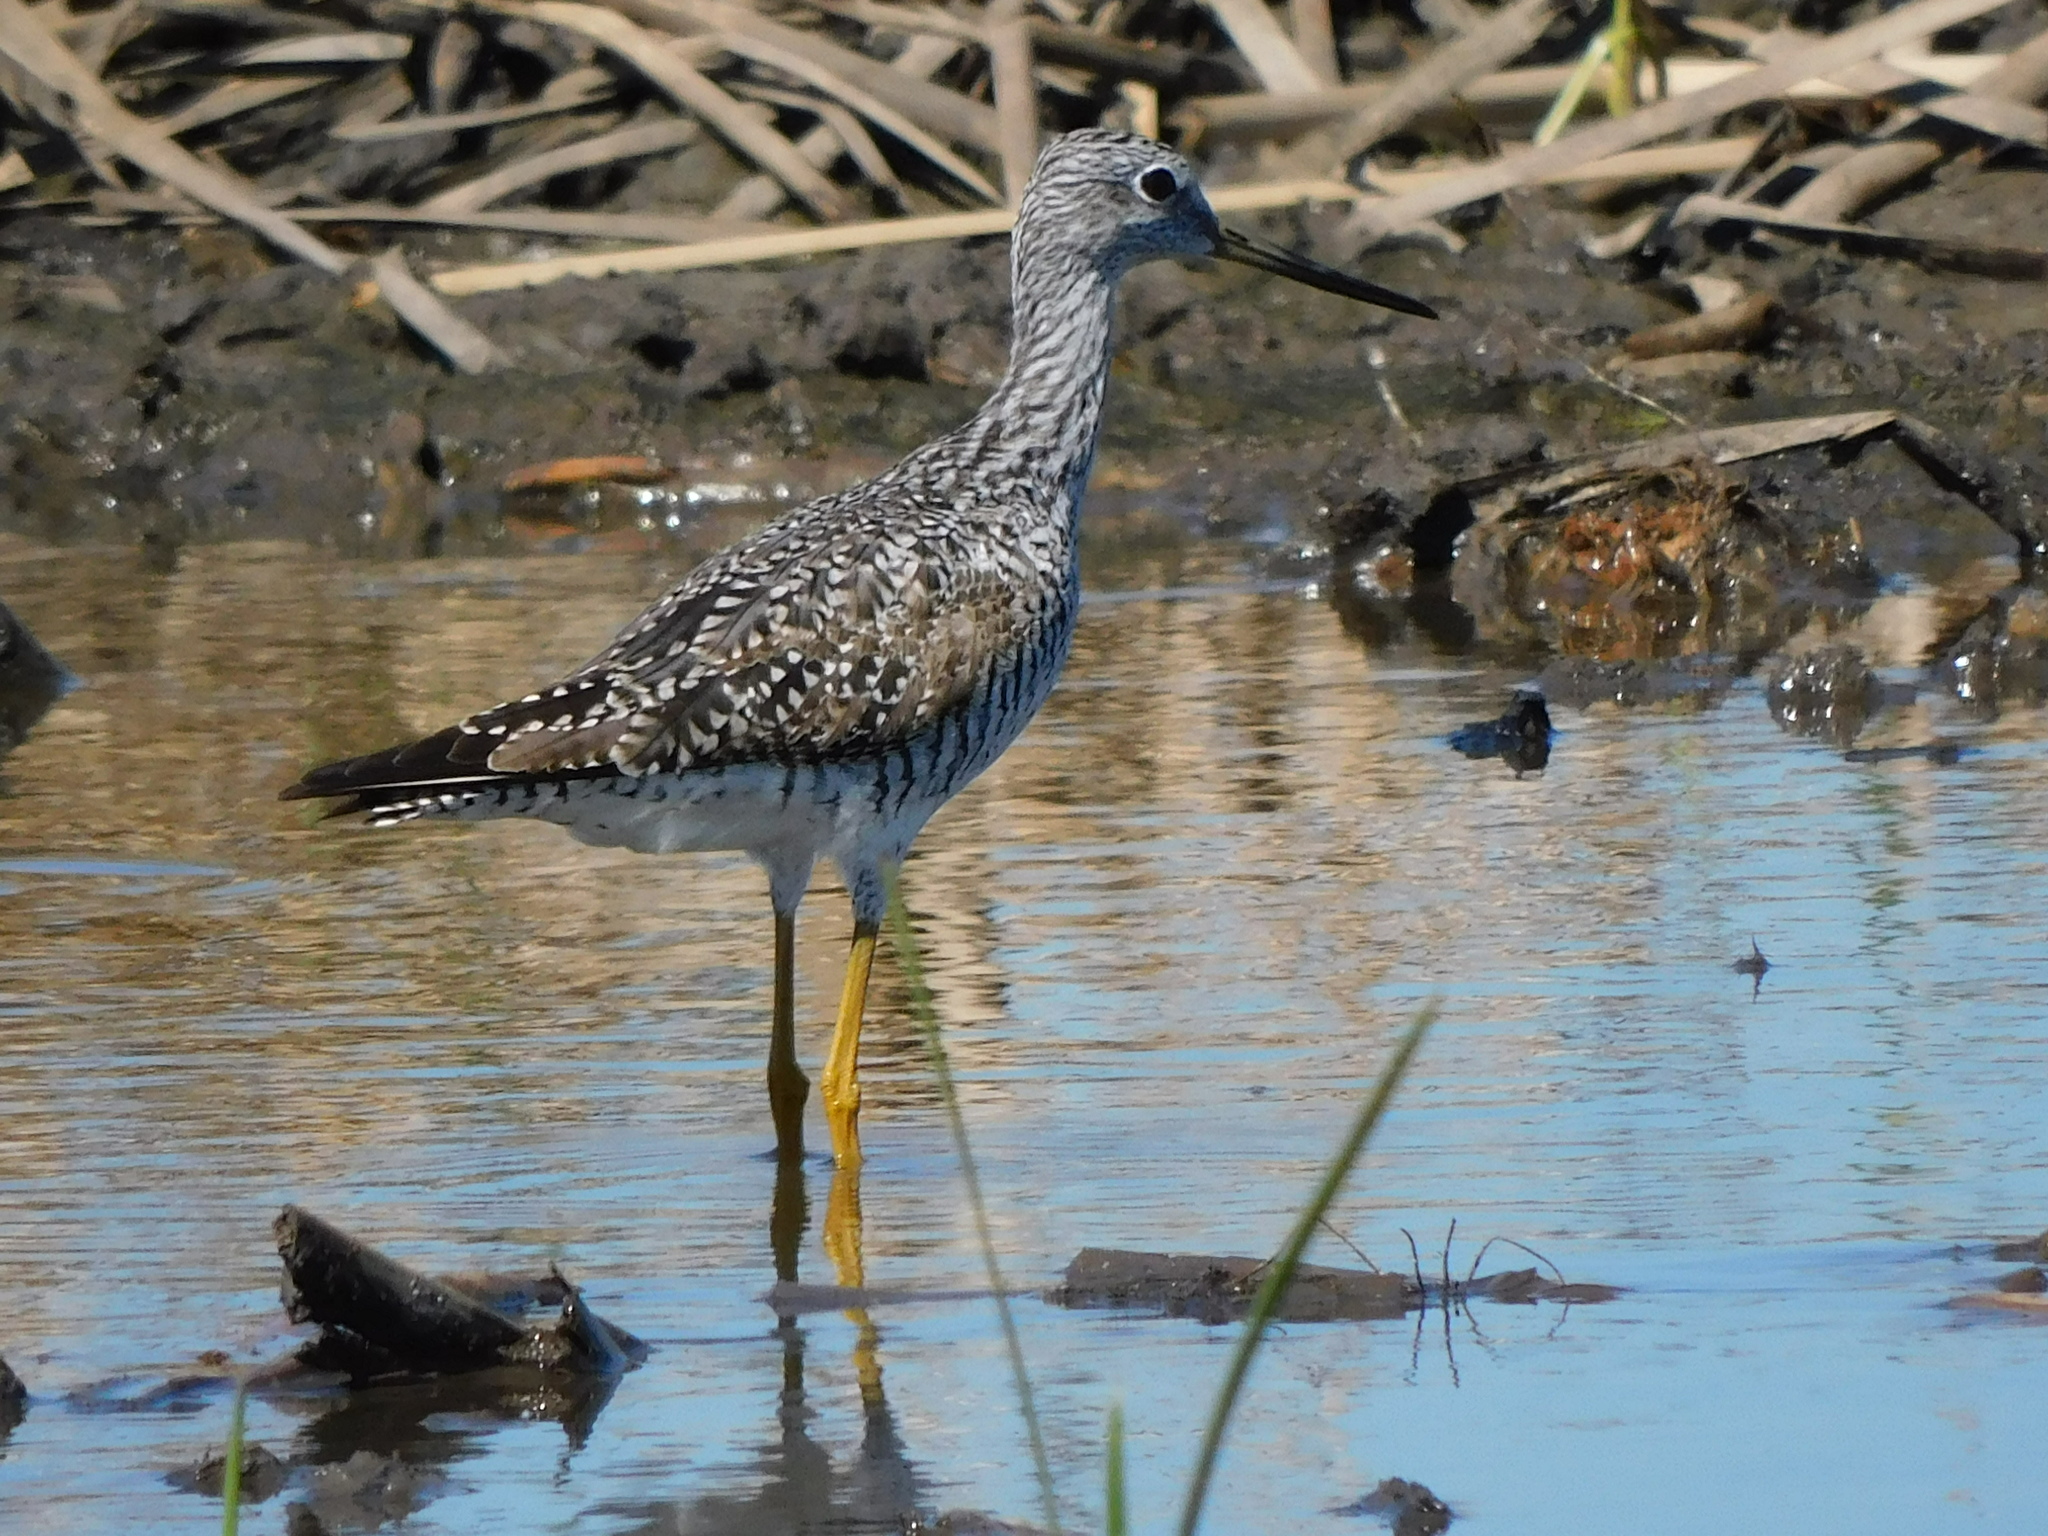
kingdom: Animalia
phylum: Chordata
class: Aves
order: Charadriiformes
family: Scolopacidae
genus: Tringa
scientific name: Tringa melanoleuca
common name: Greater yellowlegs
